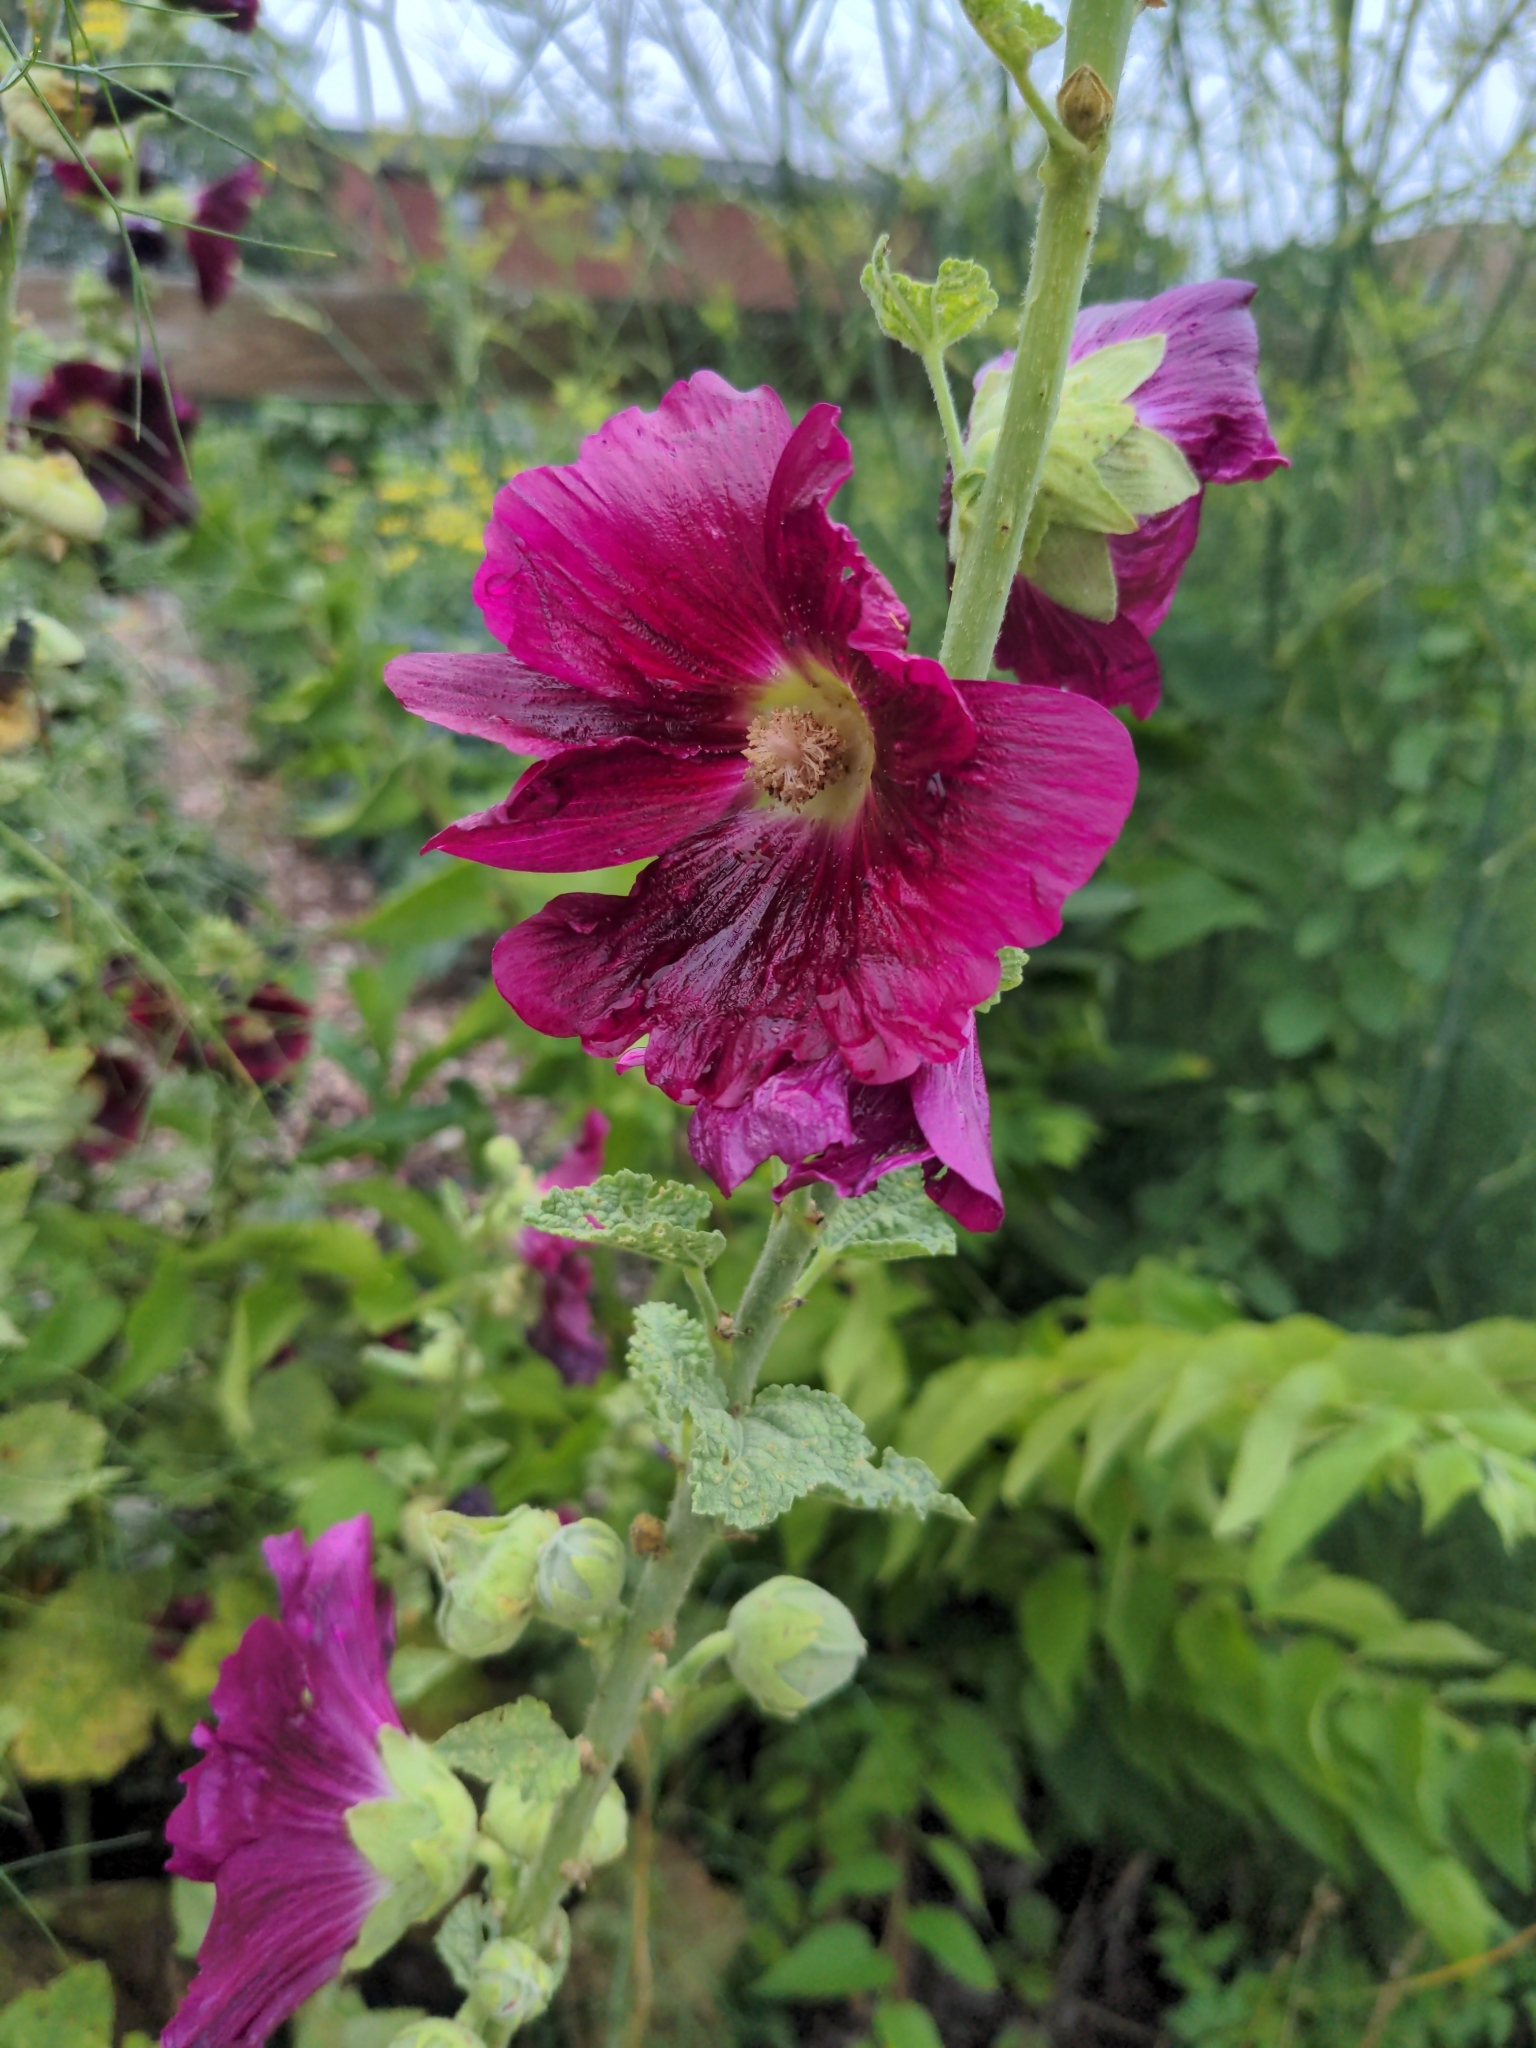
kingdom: Plantae
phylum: Tracheophyta
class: Magnoliopsida
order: Malvales
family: Malvaceae
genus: Alcea
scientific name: Alcea rosea
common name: Hollyhock
